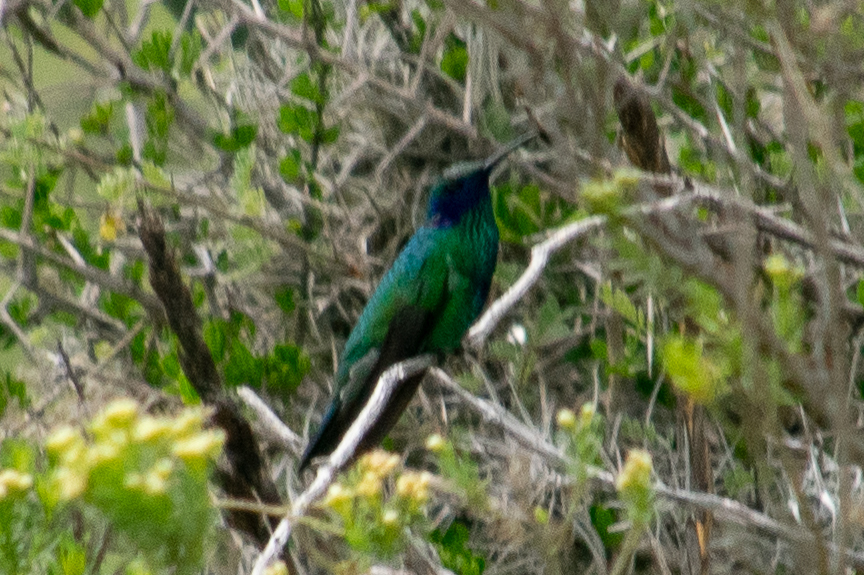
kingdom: Animalia
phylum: Chordata
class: Aves
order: Apodiformes
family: Trochilidae
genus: Colibri
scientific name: Colibri coruscans
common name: Sparkling violetear
